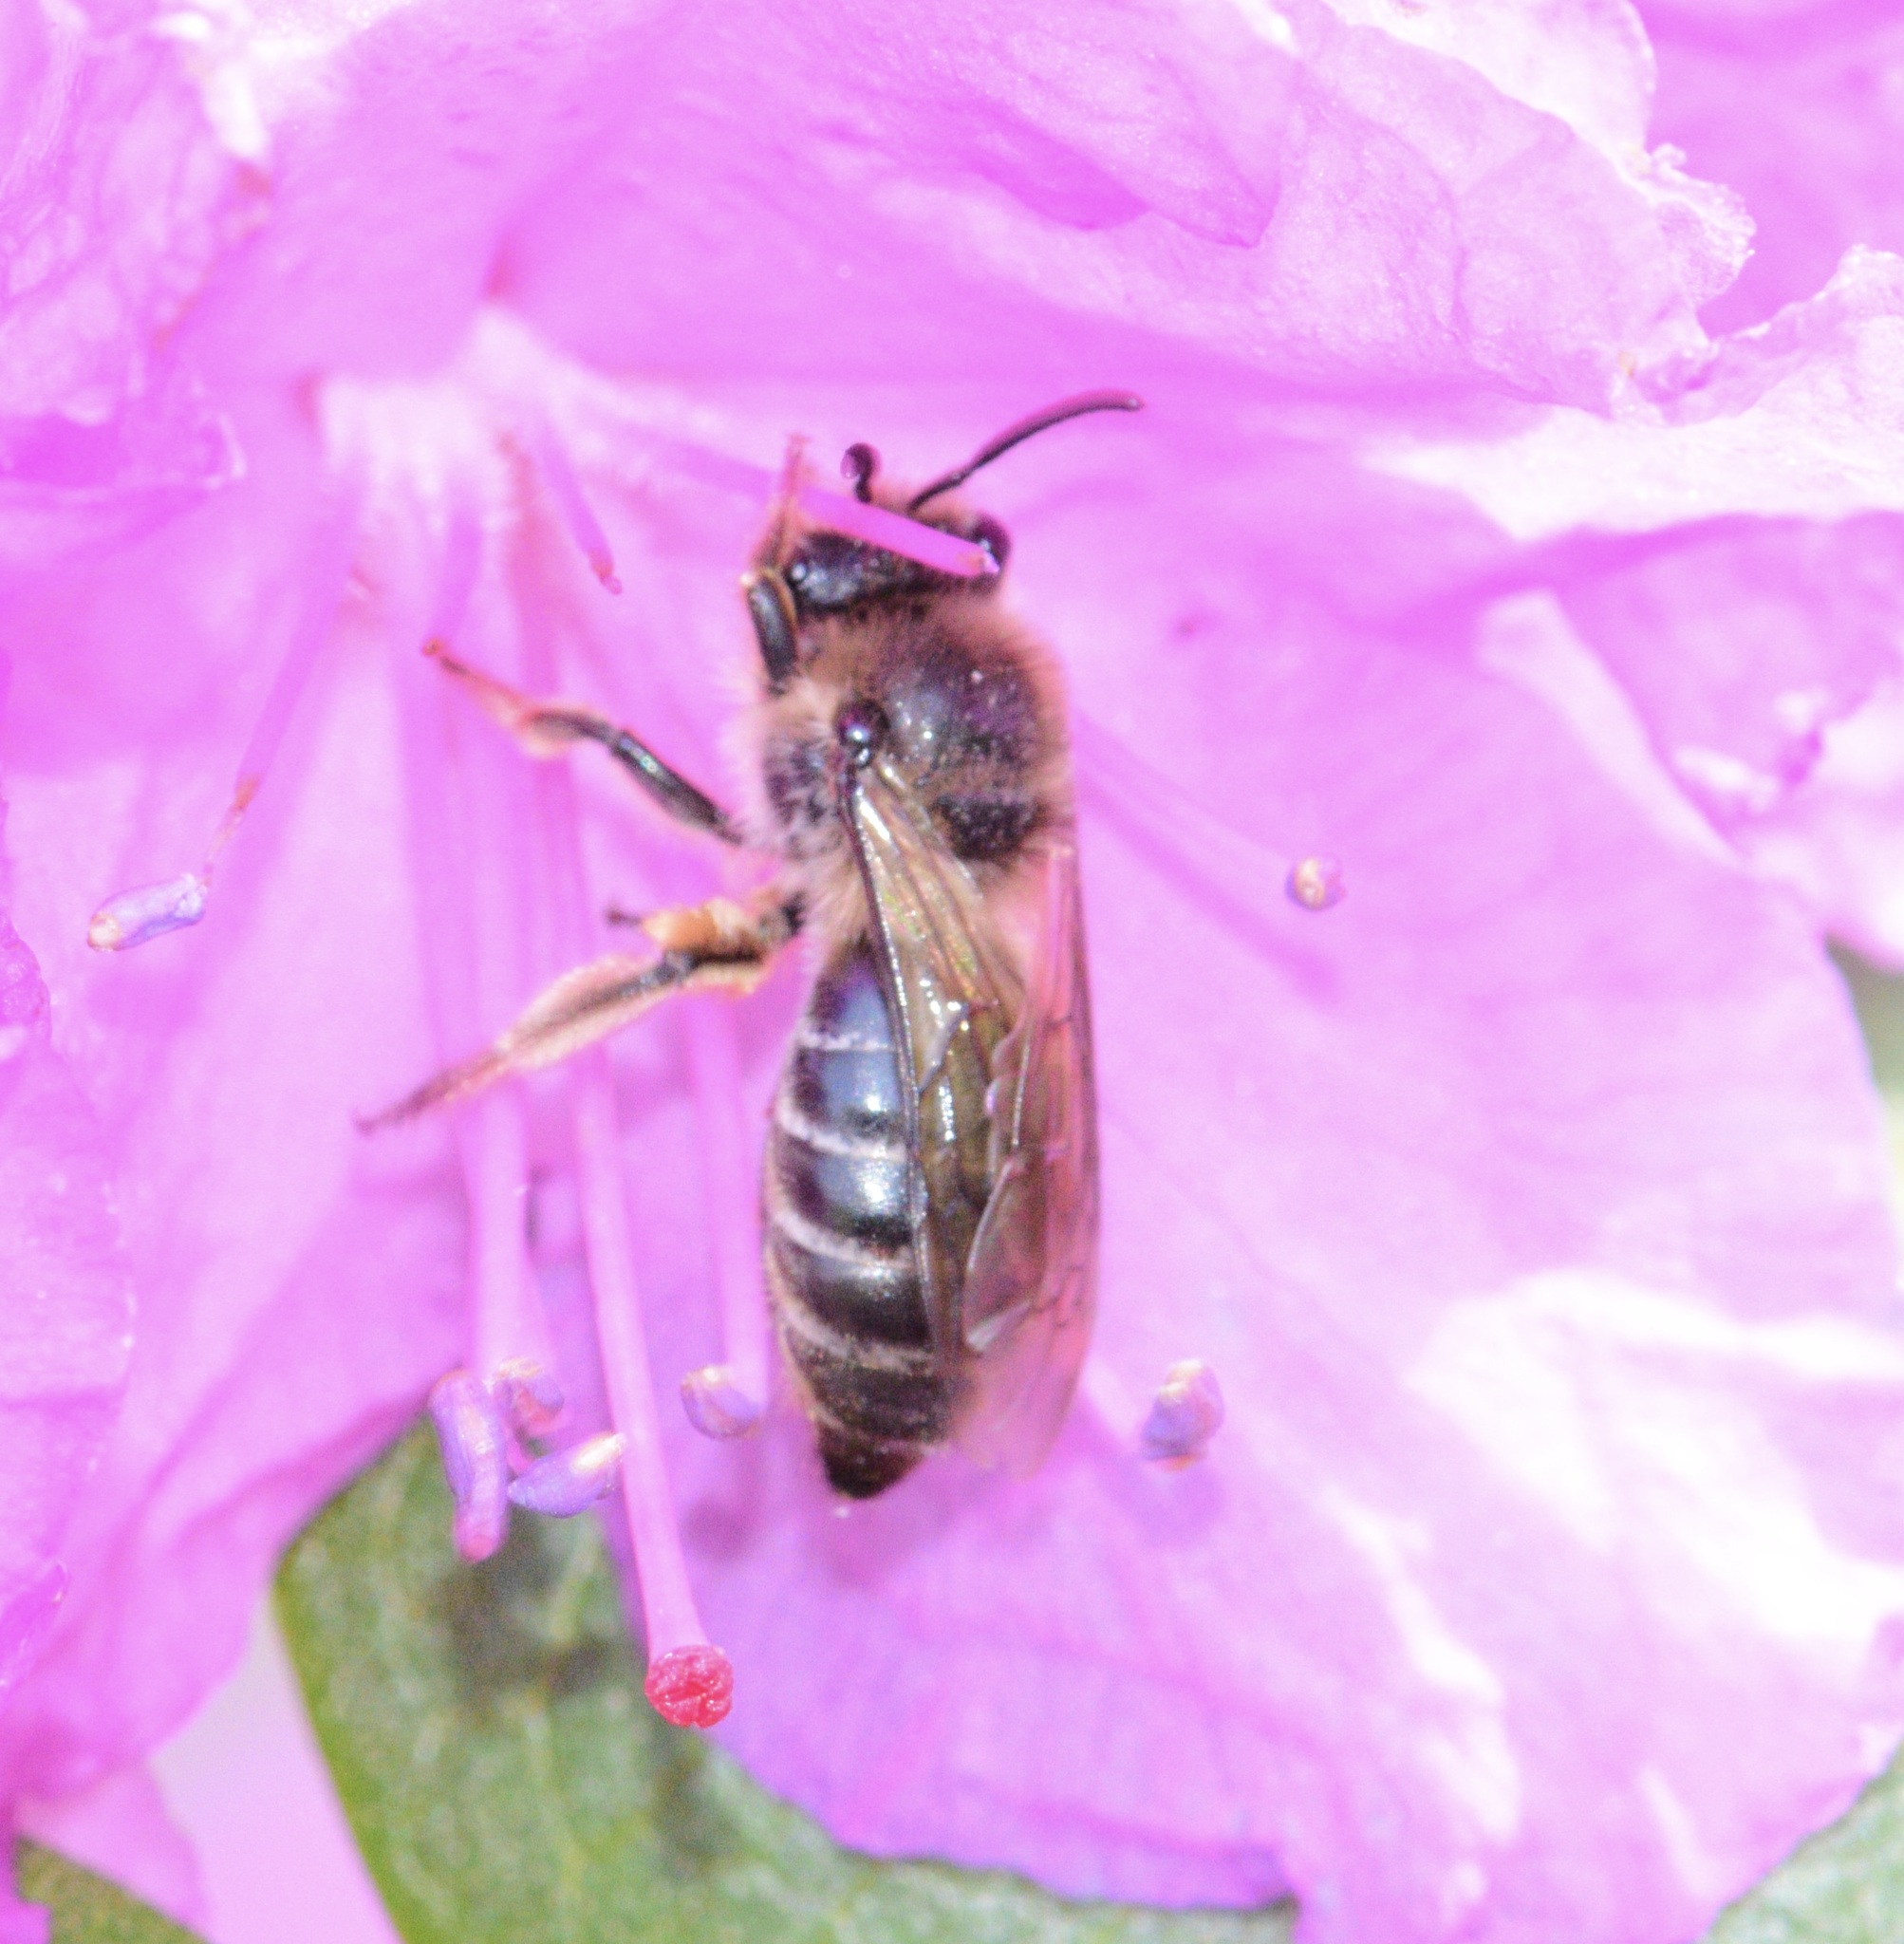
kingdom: Animalia
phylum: Arthropoda
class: Insecta
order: Hymenoptera
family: Colletidae
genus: Colletes
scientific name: Colletes inaequalis
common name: Unequal cellophane bee
